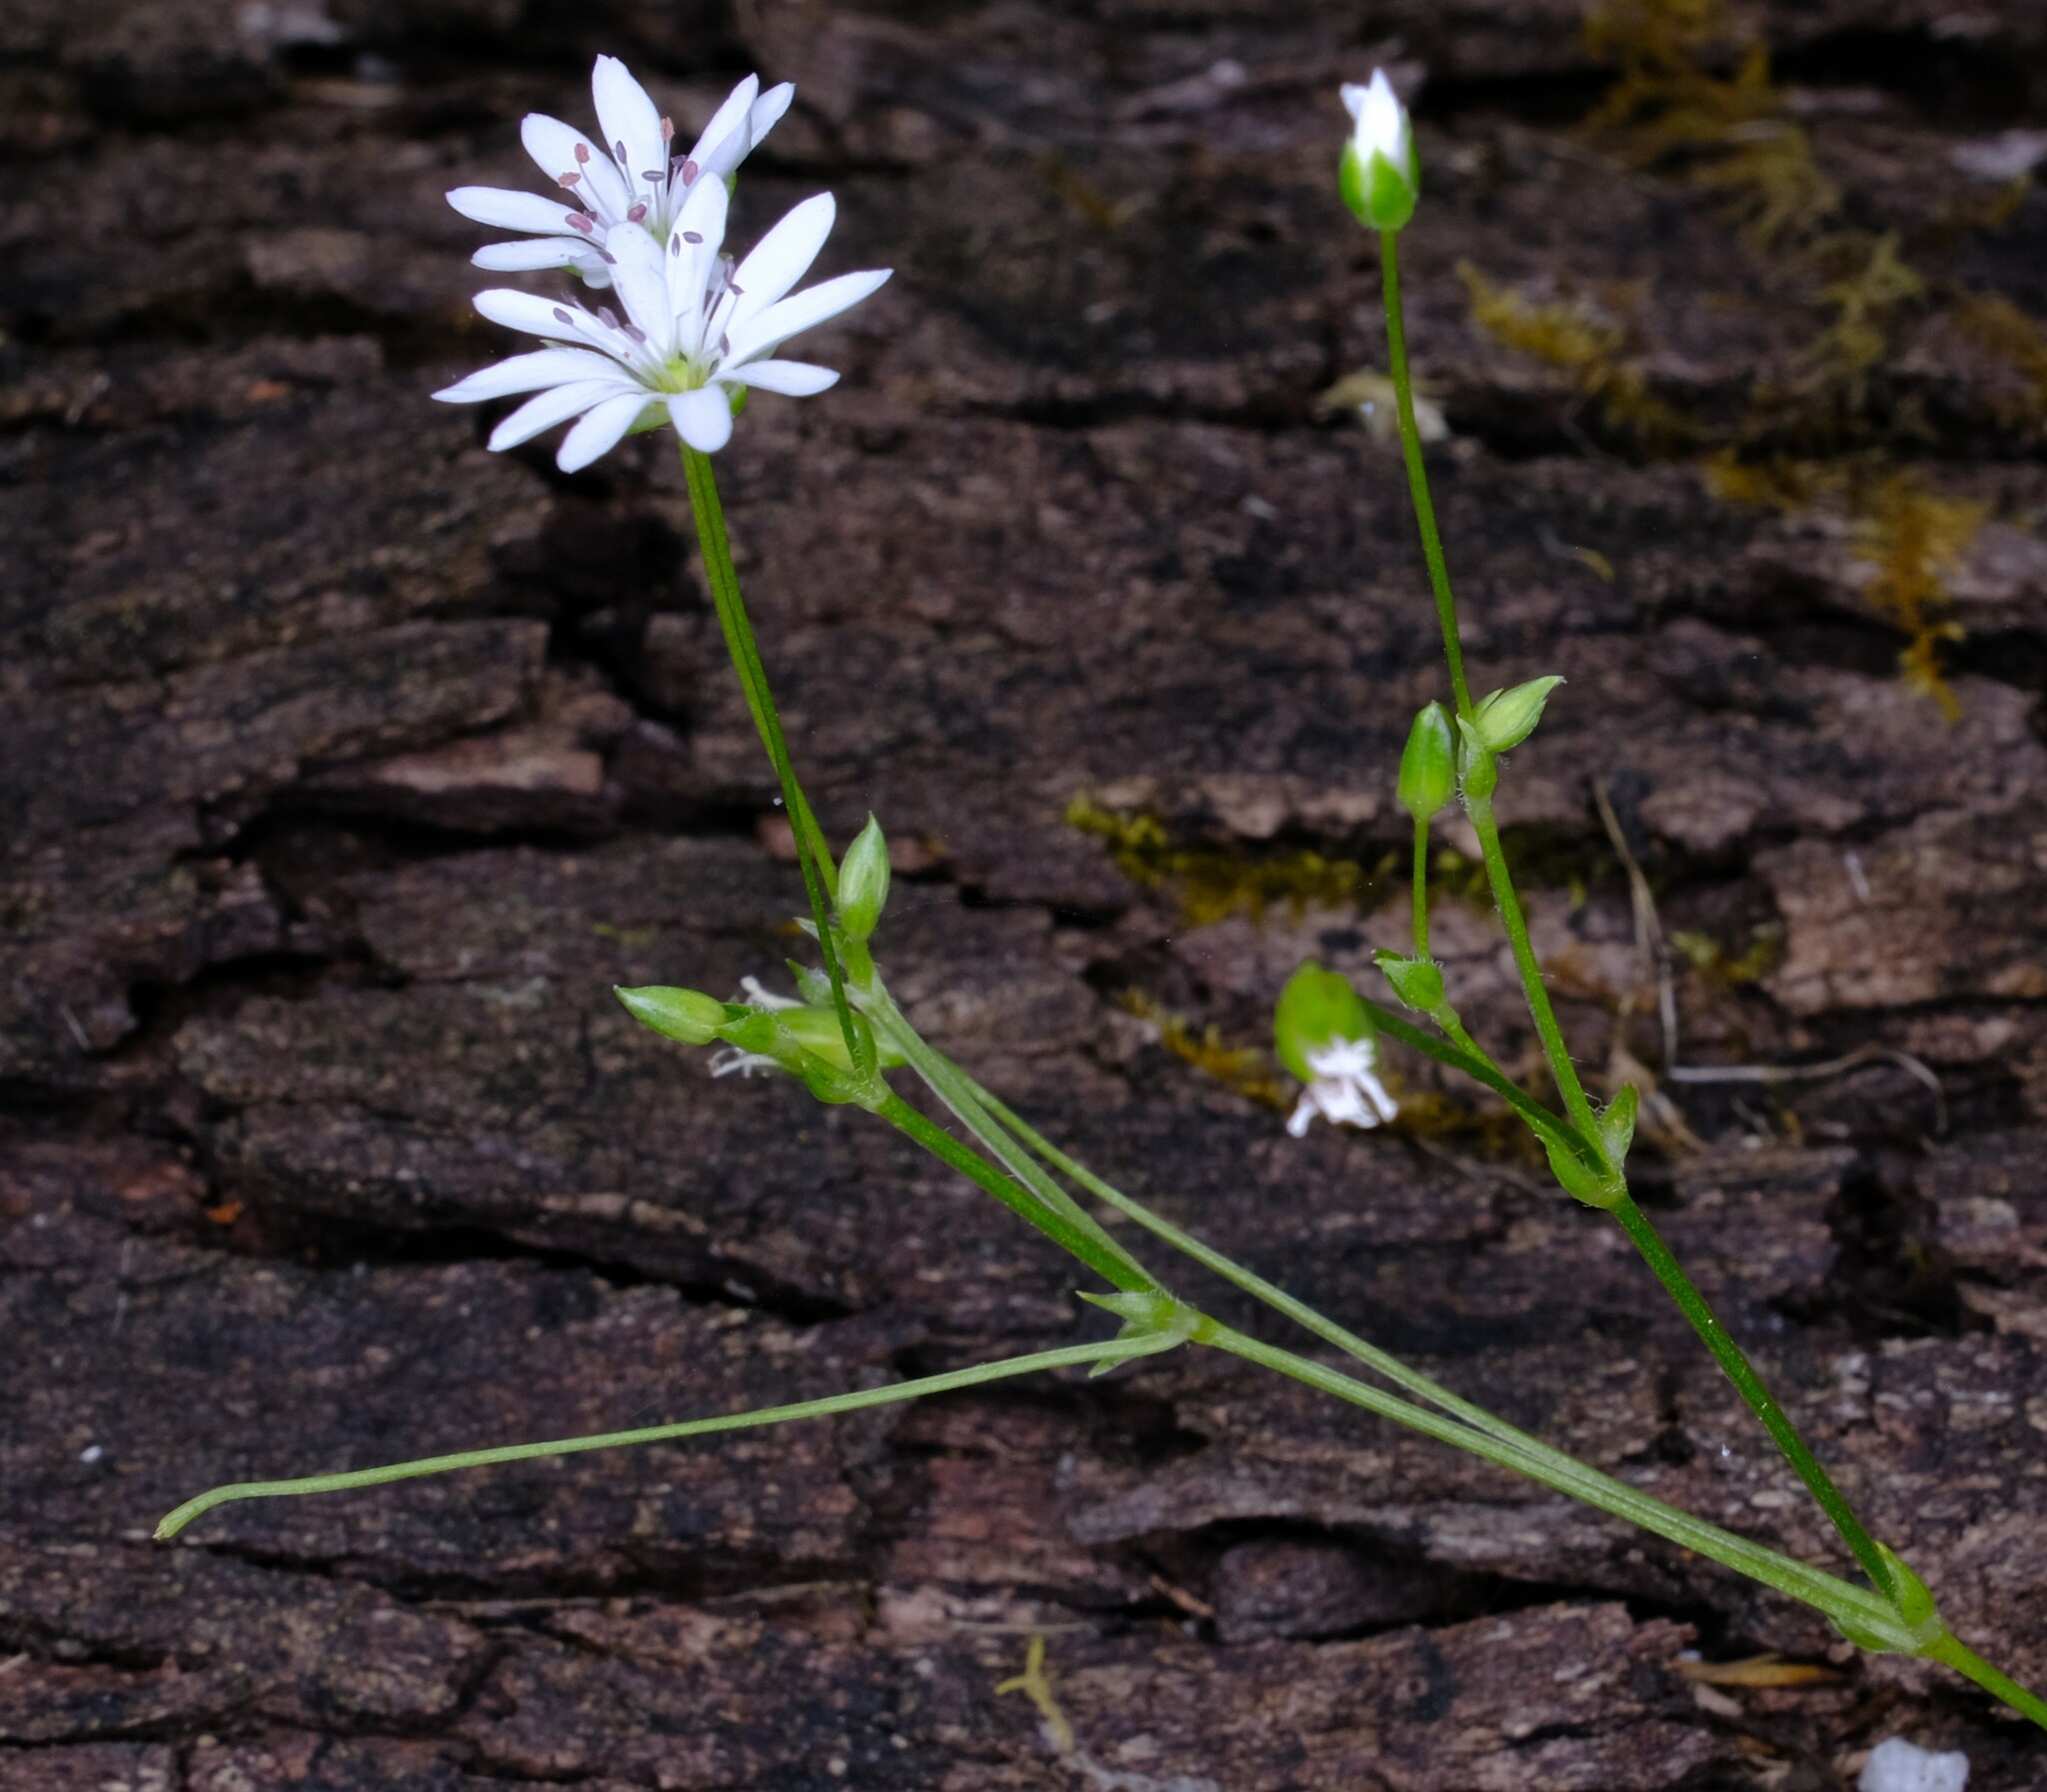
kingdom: Plantae
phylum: Tracheophyta
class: Magnoliopsida
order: Caryophyllales
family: Caryophyllaceae
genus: Stellaria
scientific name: Stellaria flaccida
